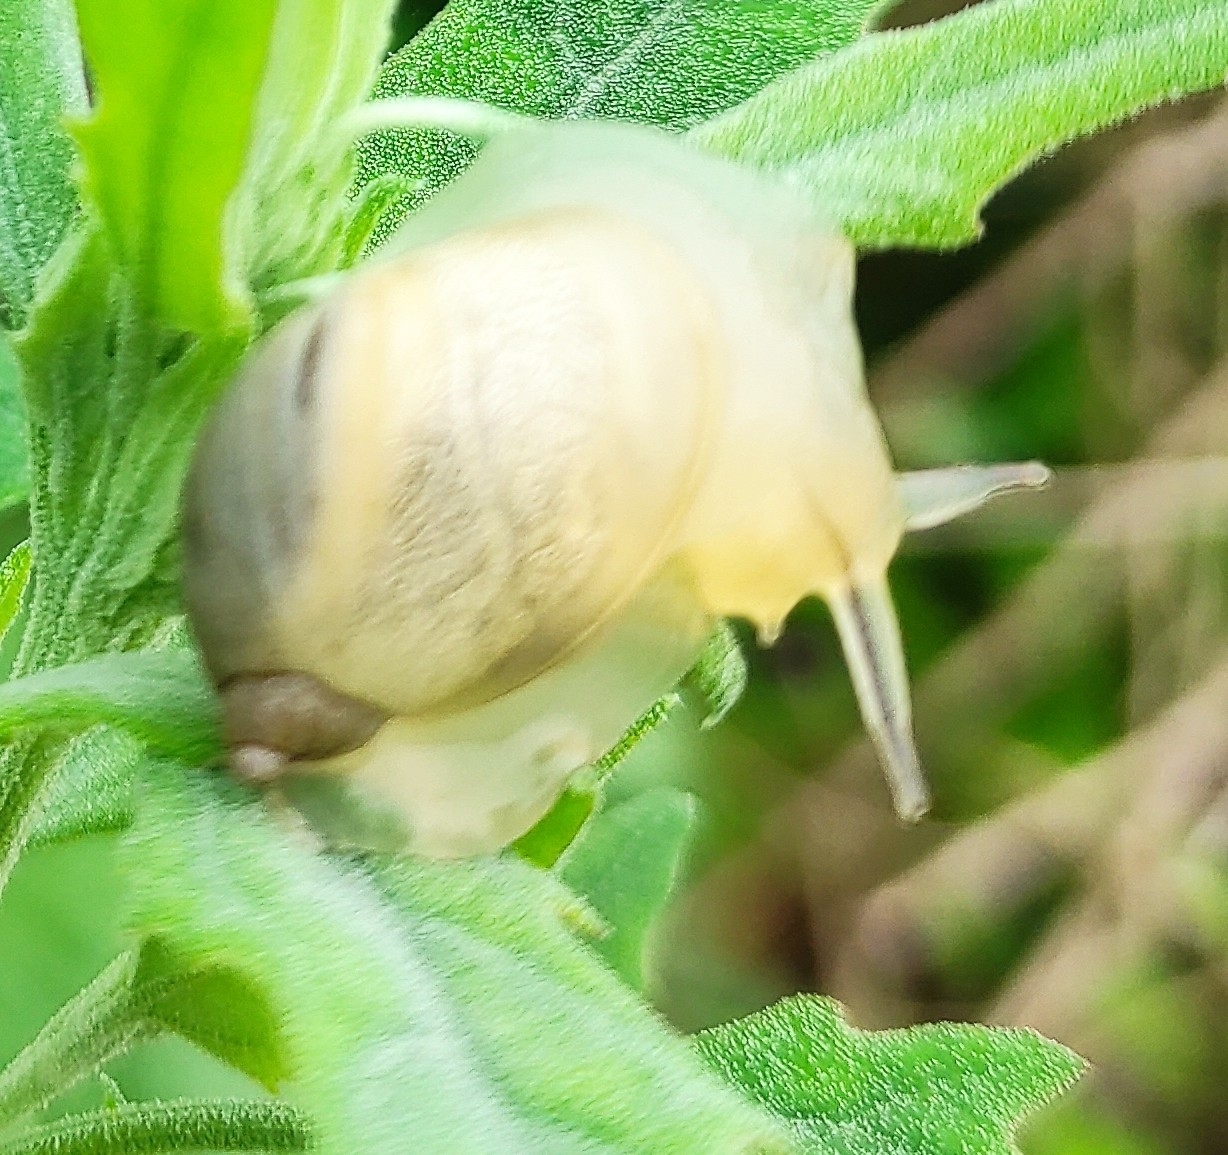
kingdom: Animalia
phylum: Mollusca
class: Gastropoda
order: Stylommatophora
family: Succineidae
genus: Succinea
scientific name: Succinea lauta
